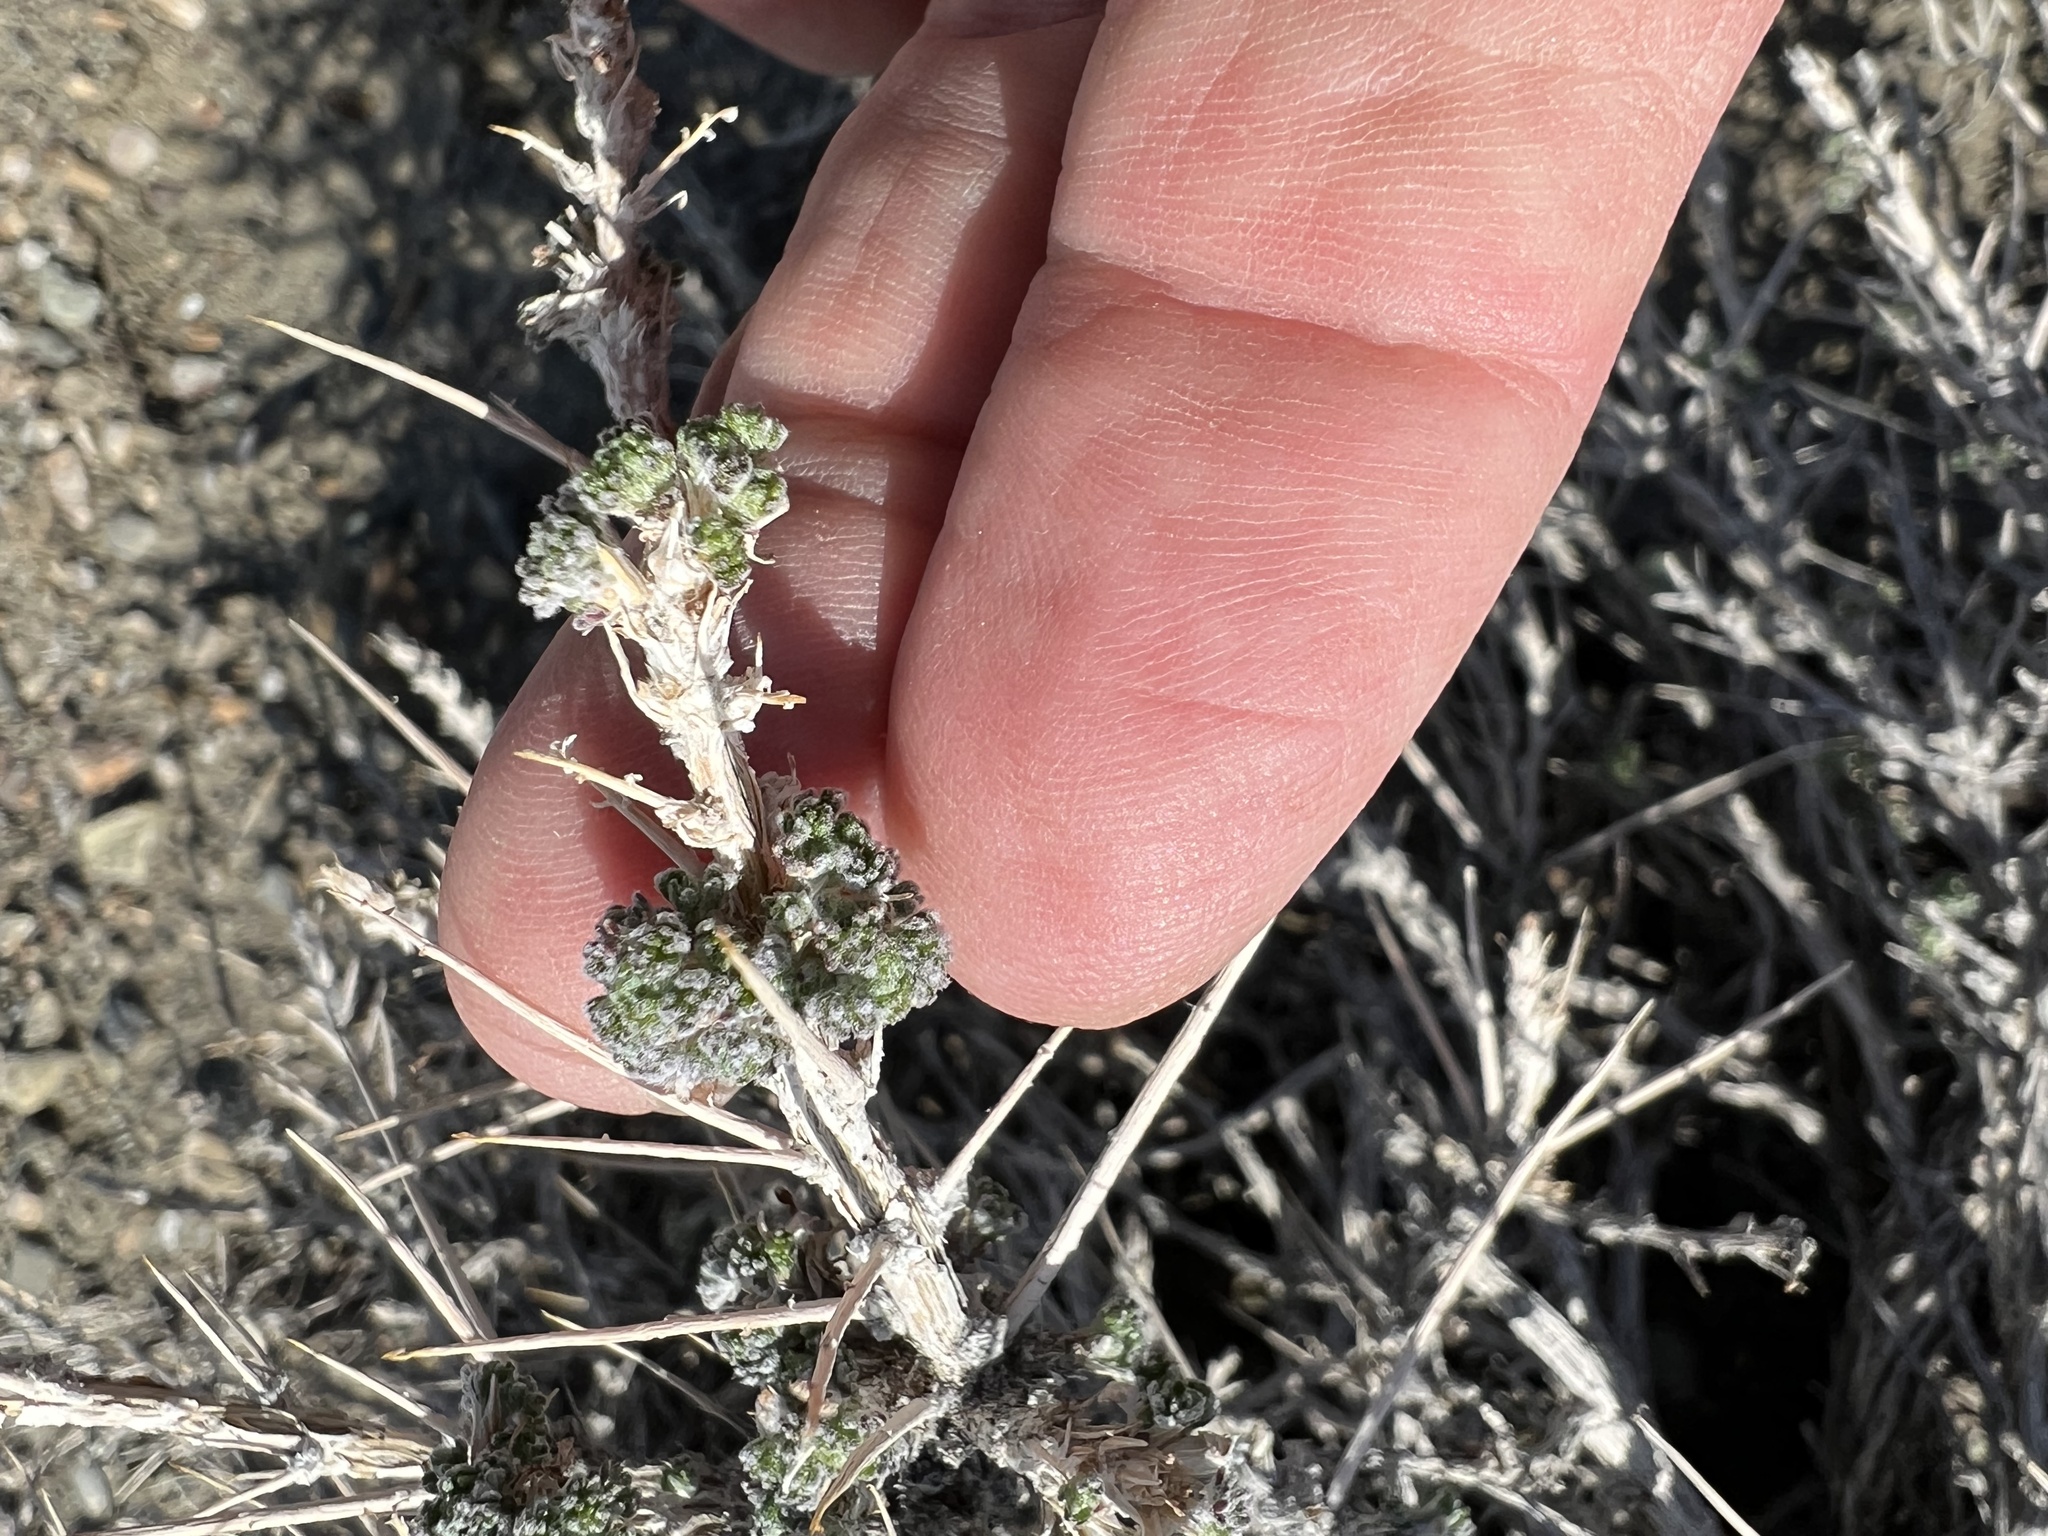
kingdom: Plantae
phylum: Tracheophyta
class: Magnoliopsida
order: Asterales
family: Asteraceae
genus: Artemisia
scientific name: Artemisia spinescens
